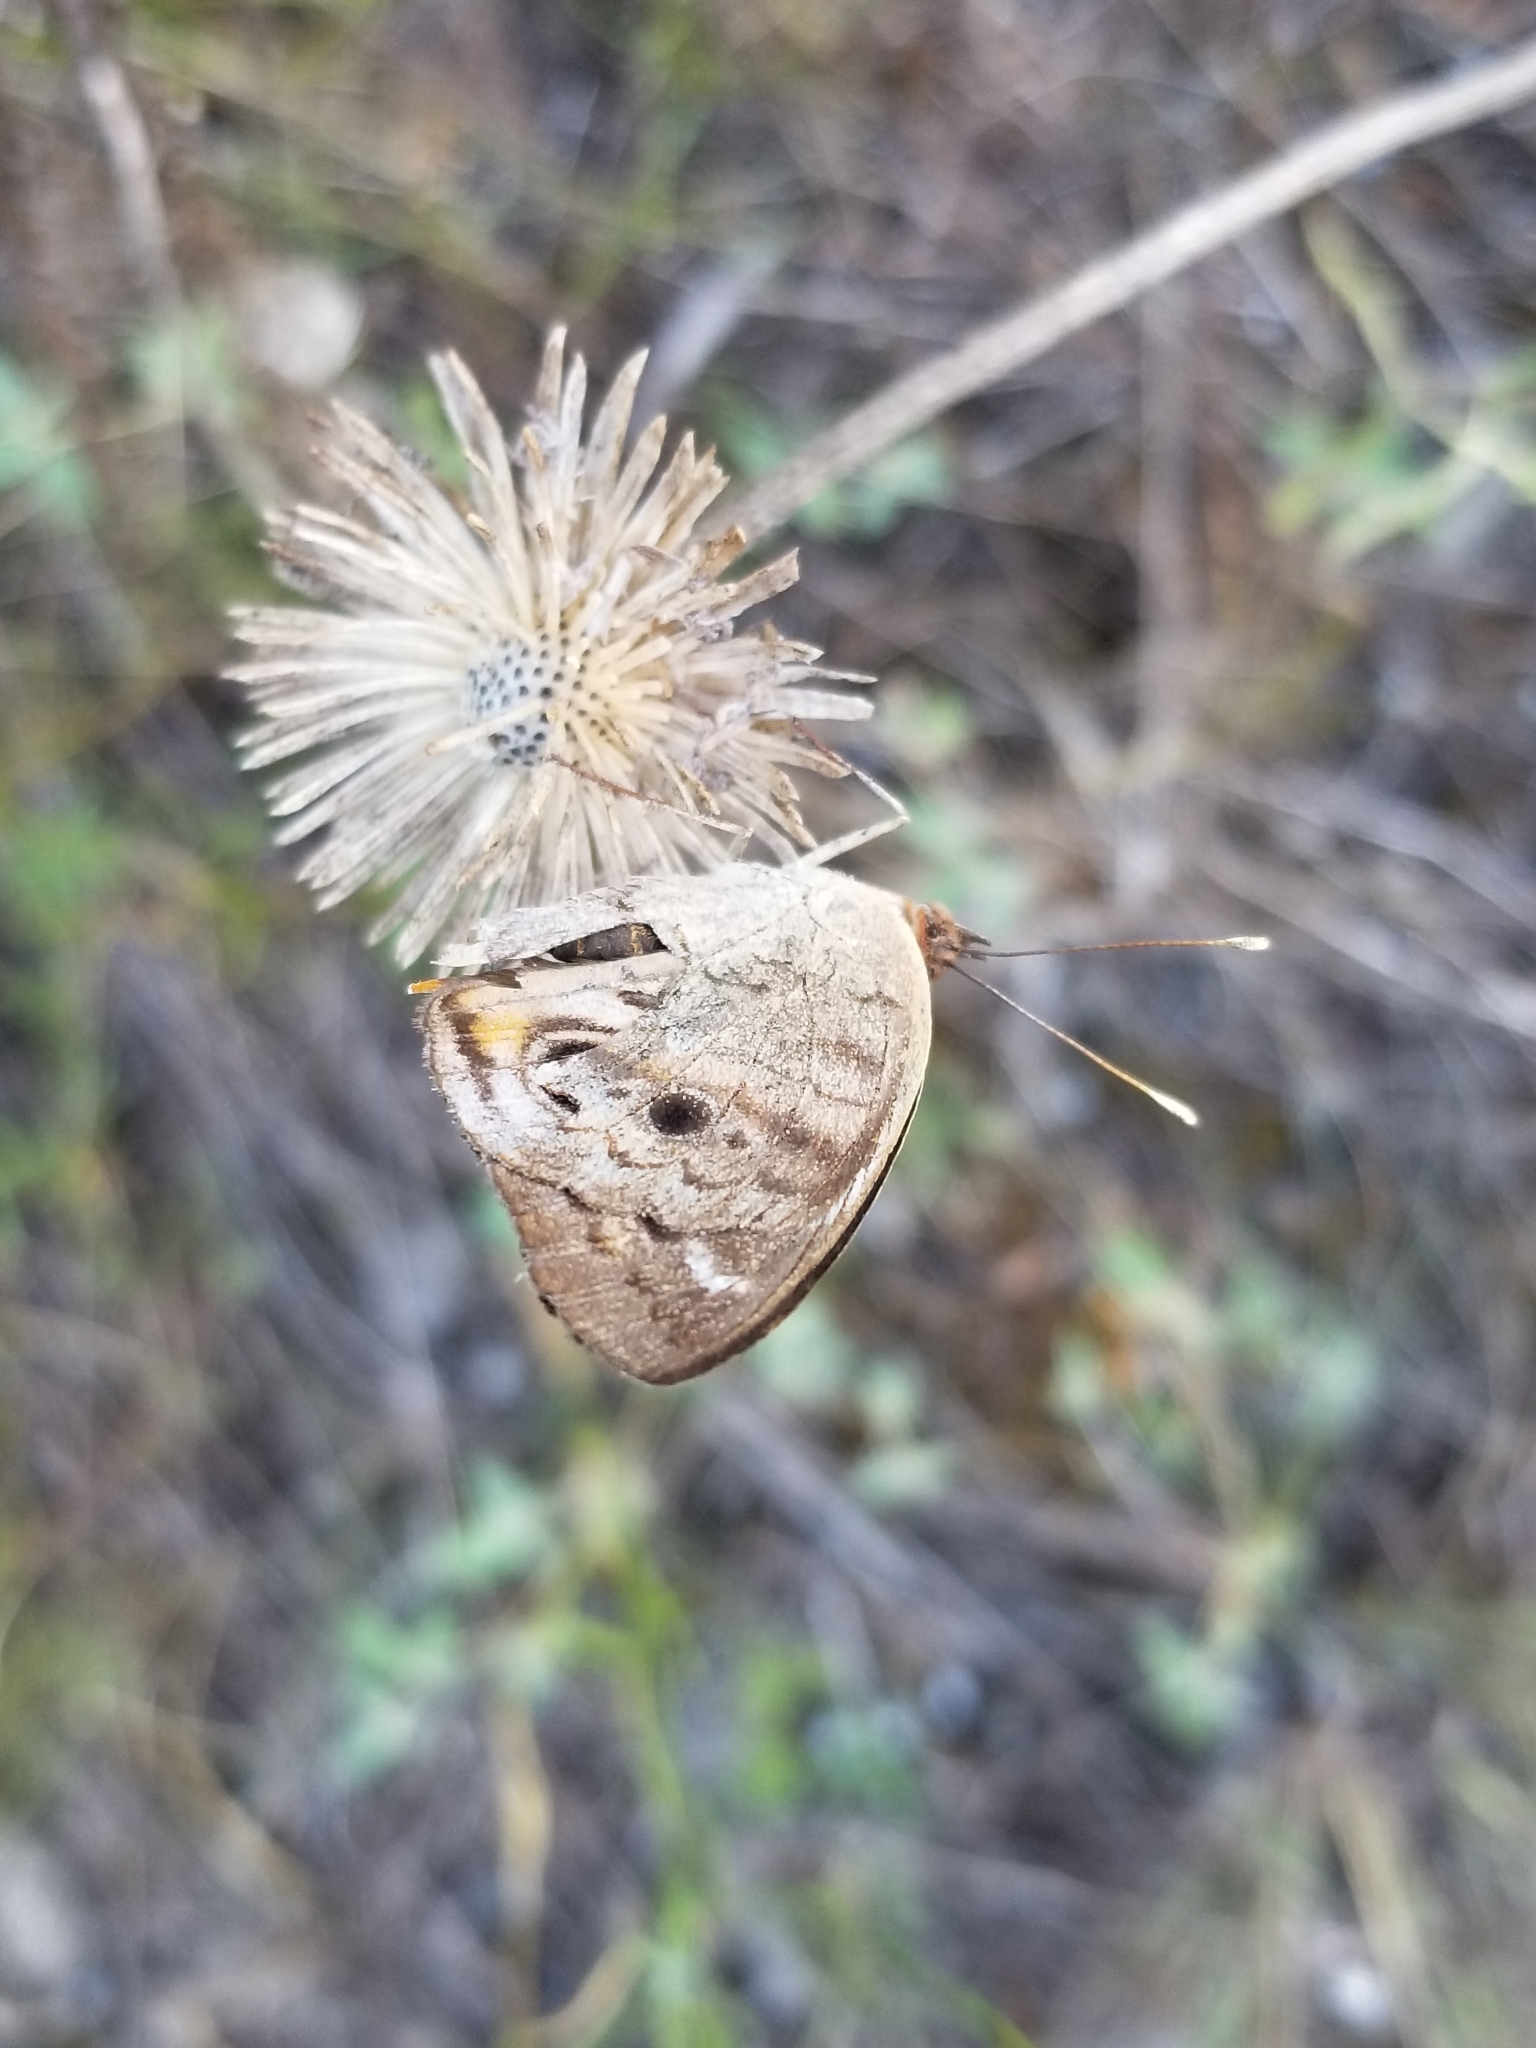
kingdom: Animalia
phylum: Arthropoda
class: Insecta
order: Lepidoptera
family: Nymphalidae
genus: Junonia
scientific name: Junonia coenia
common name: Common buckeye
